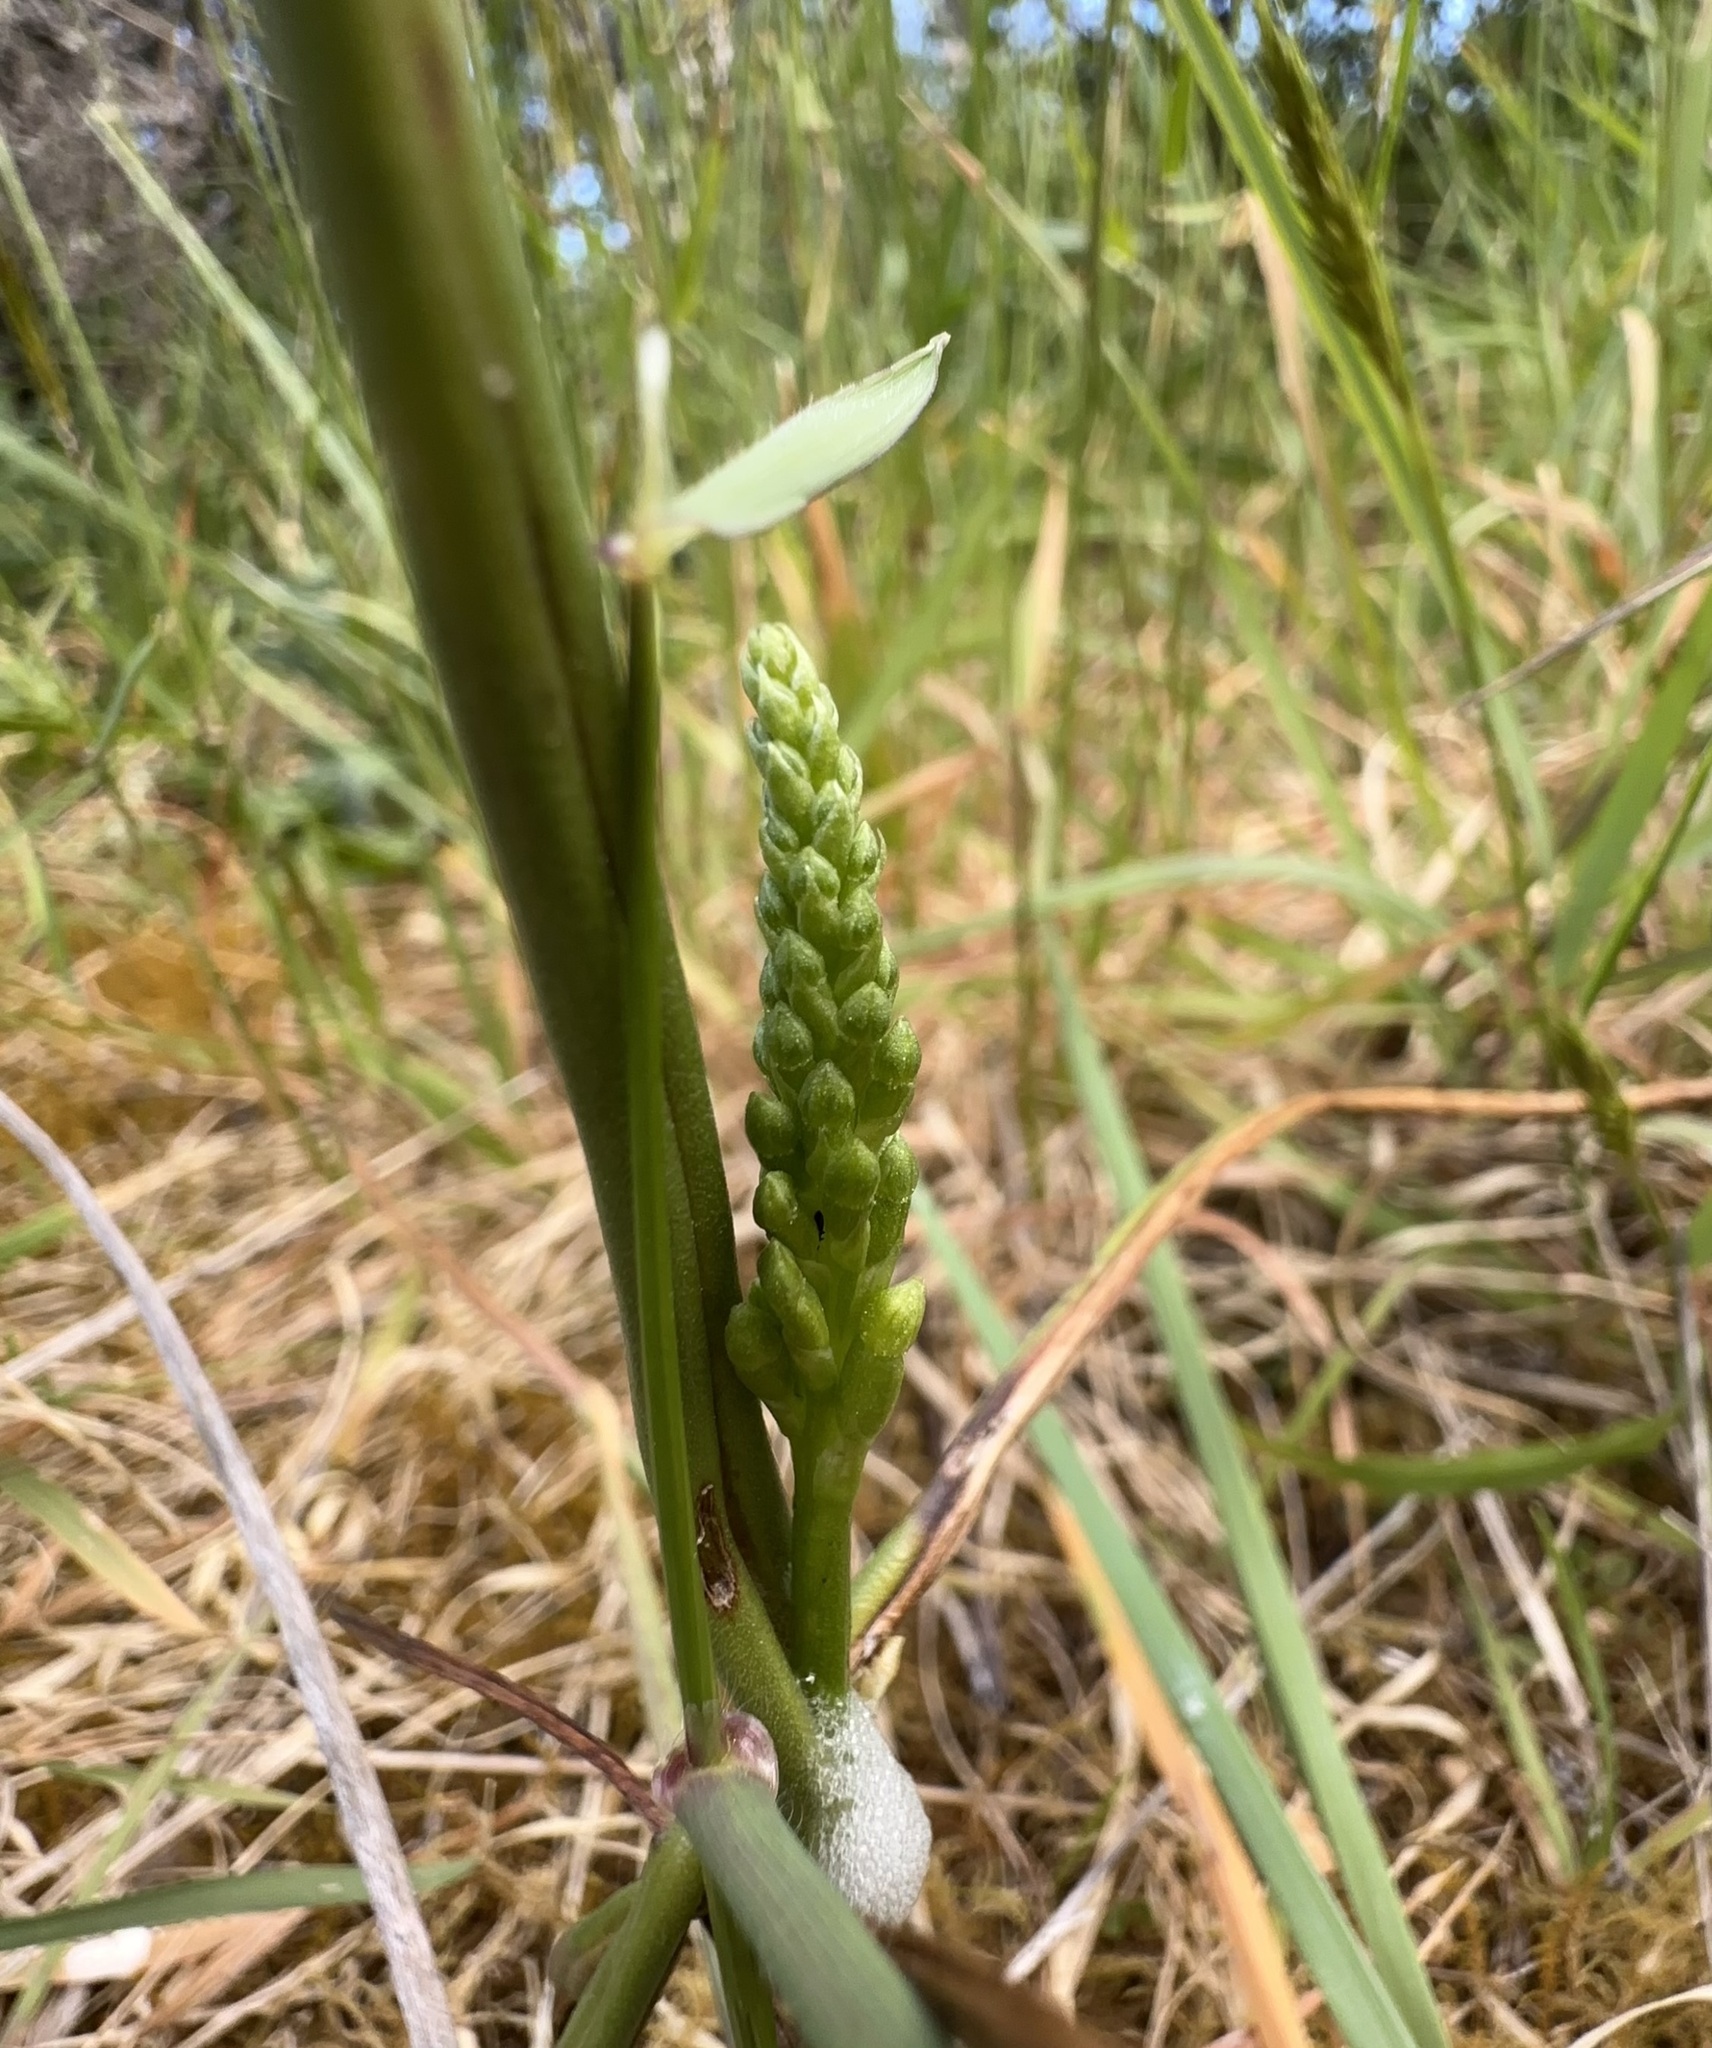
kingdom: Plantae
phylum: Tracheophyta
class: Liliopsida
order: Asparagales
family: Orchidaceae
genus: Microtis
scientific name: Microtis unifolia
